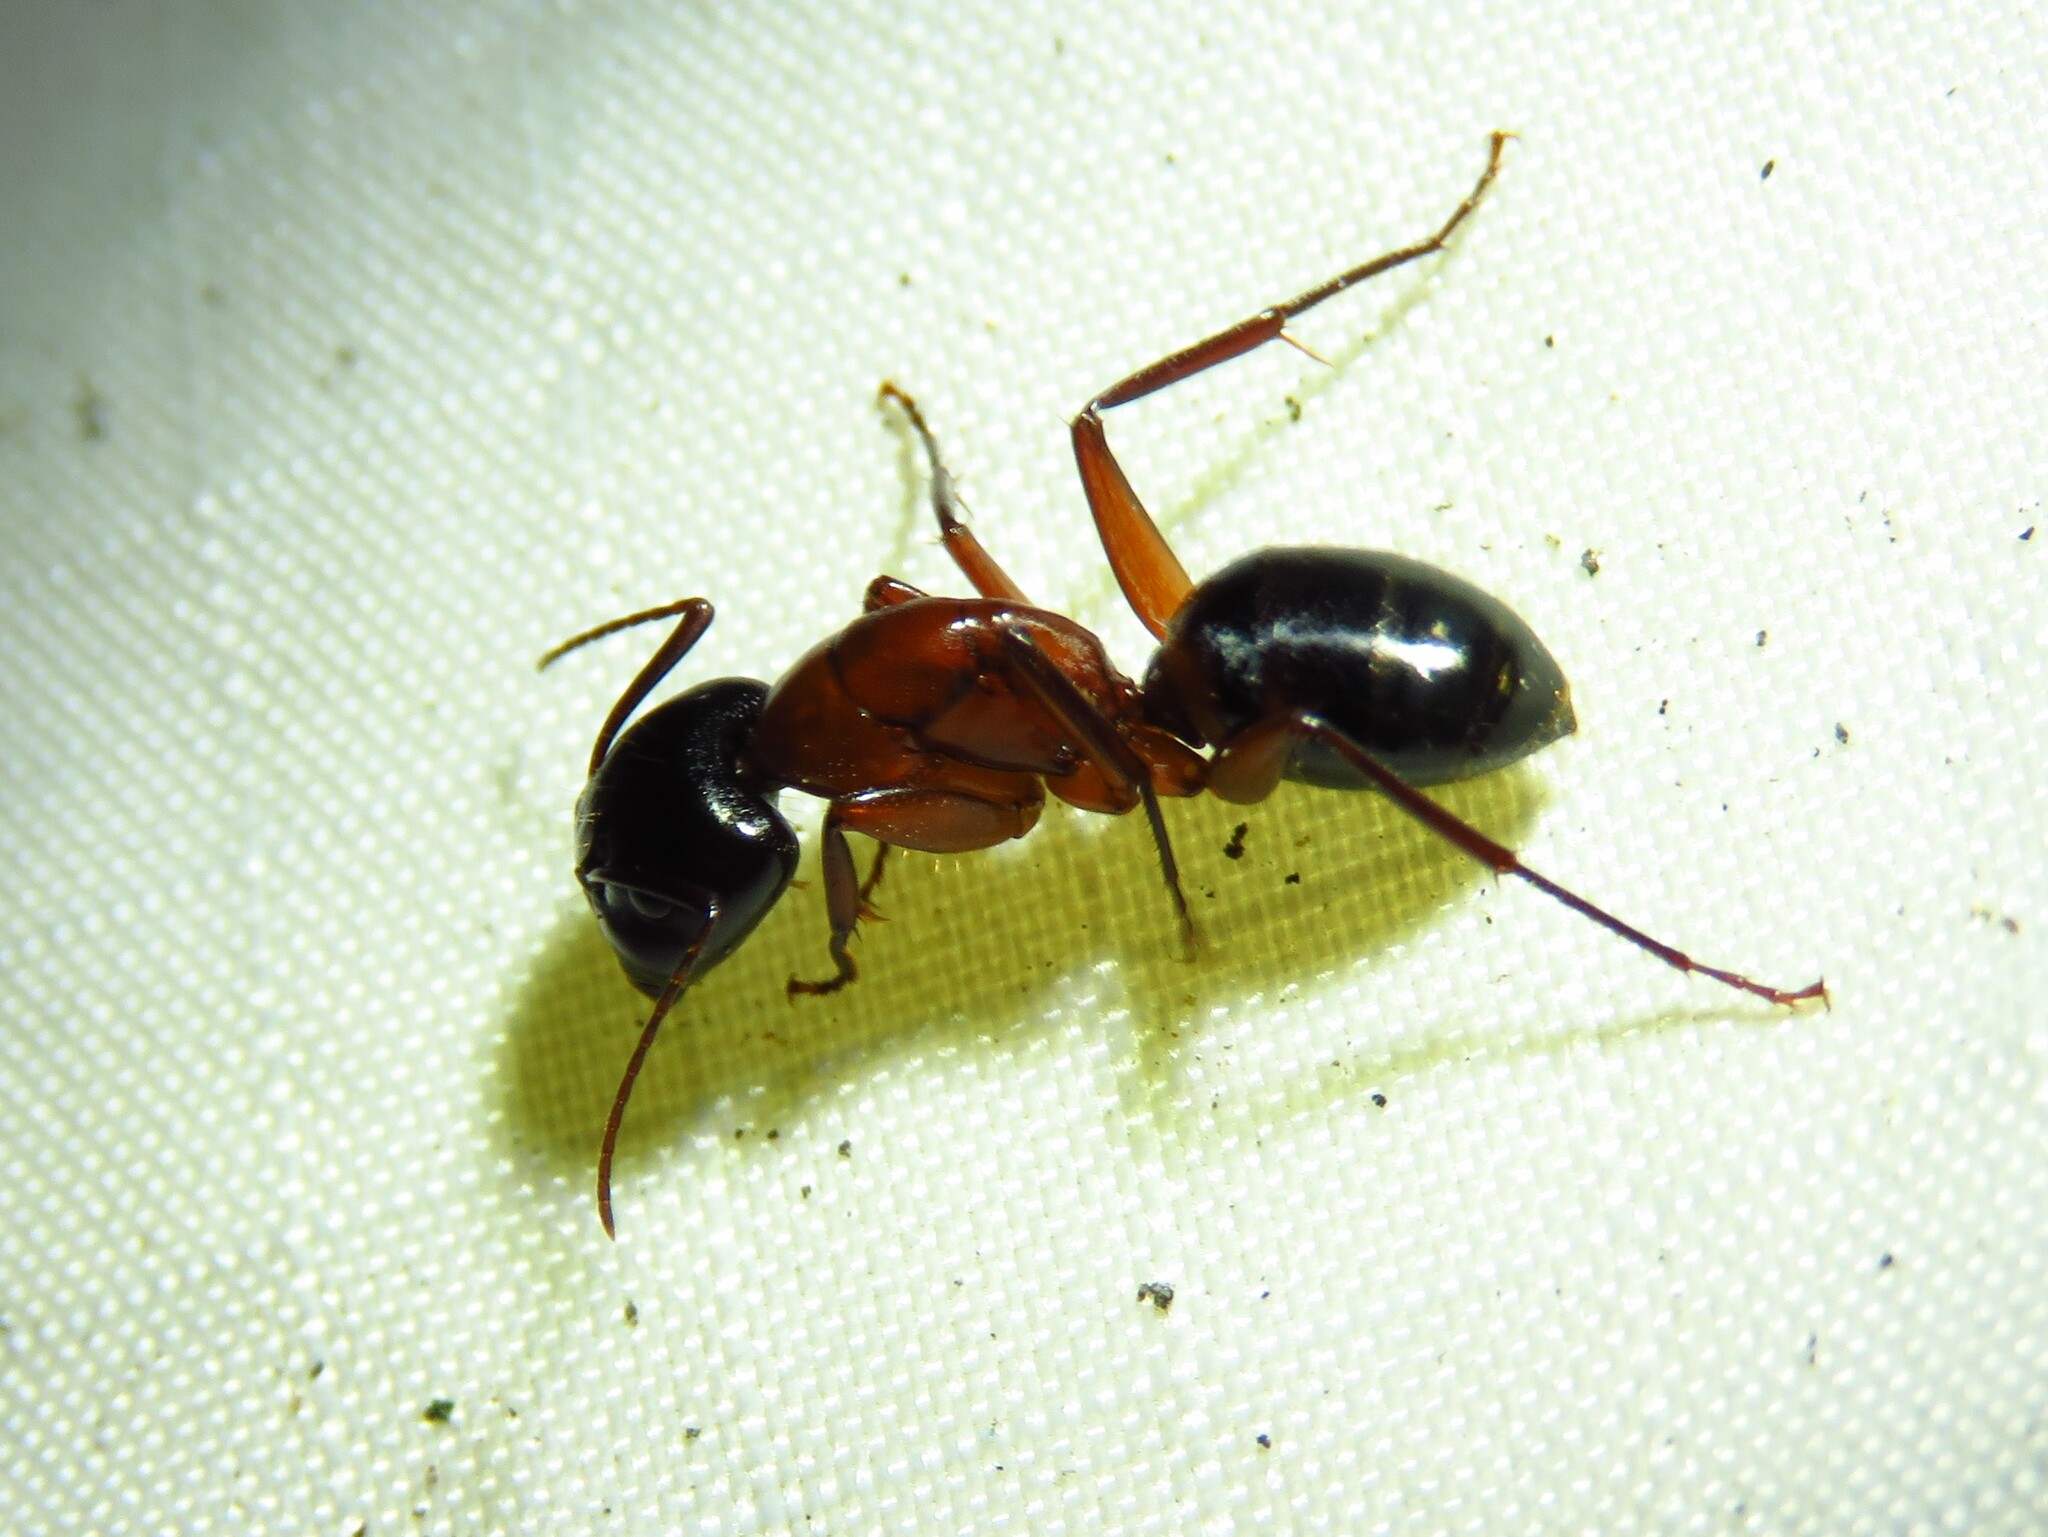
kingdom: Animalia
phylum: Arthropoda
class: Insecta
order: Hymenoptera
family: Formicidae
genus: Camponotus
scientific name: Camponotus texanus
